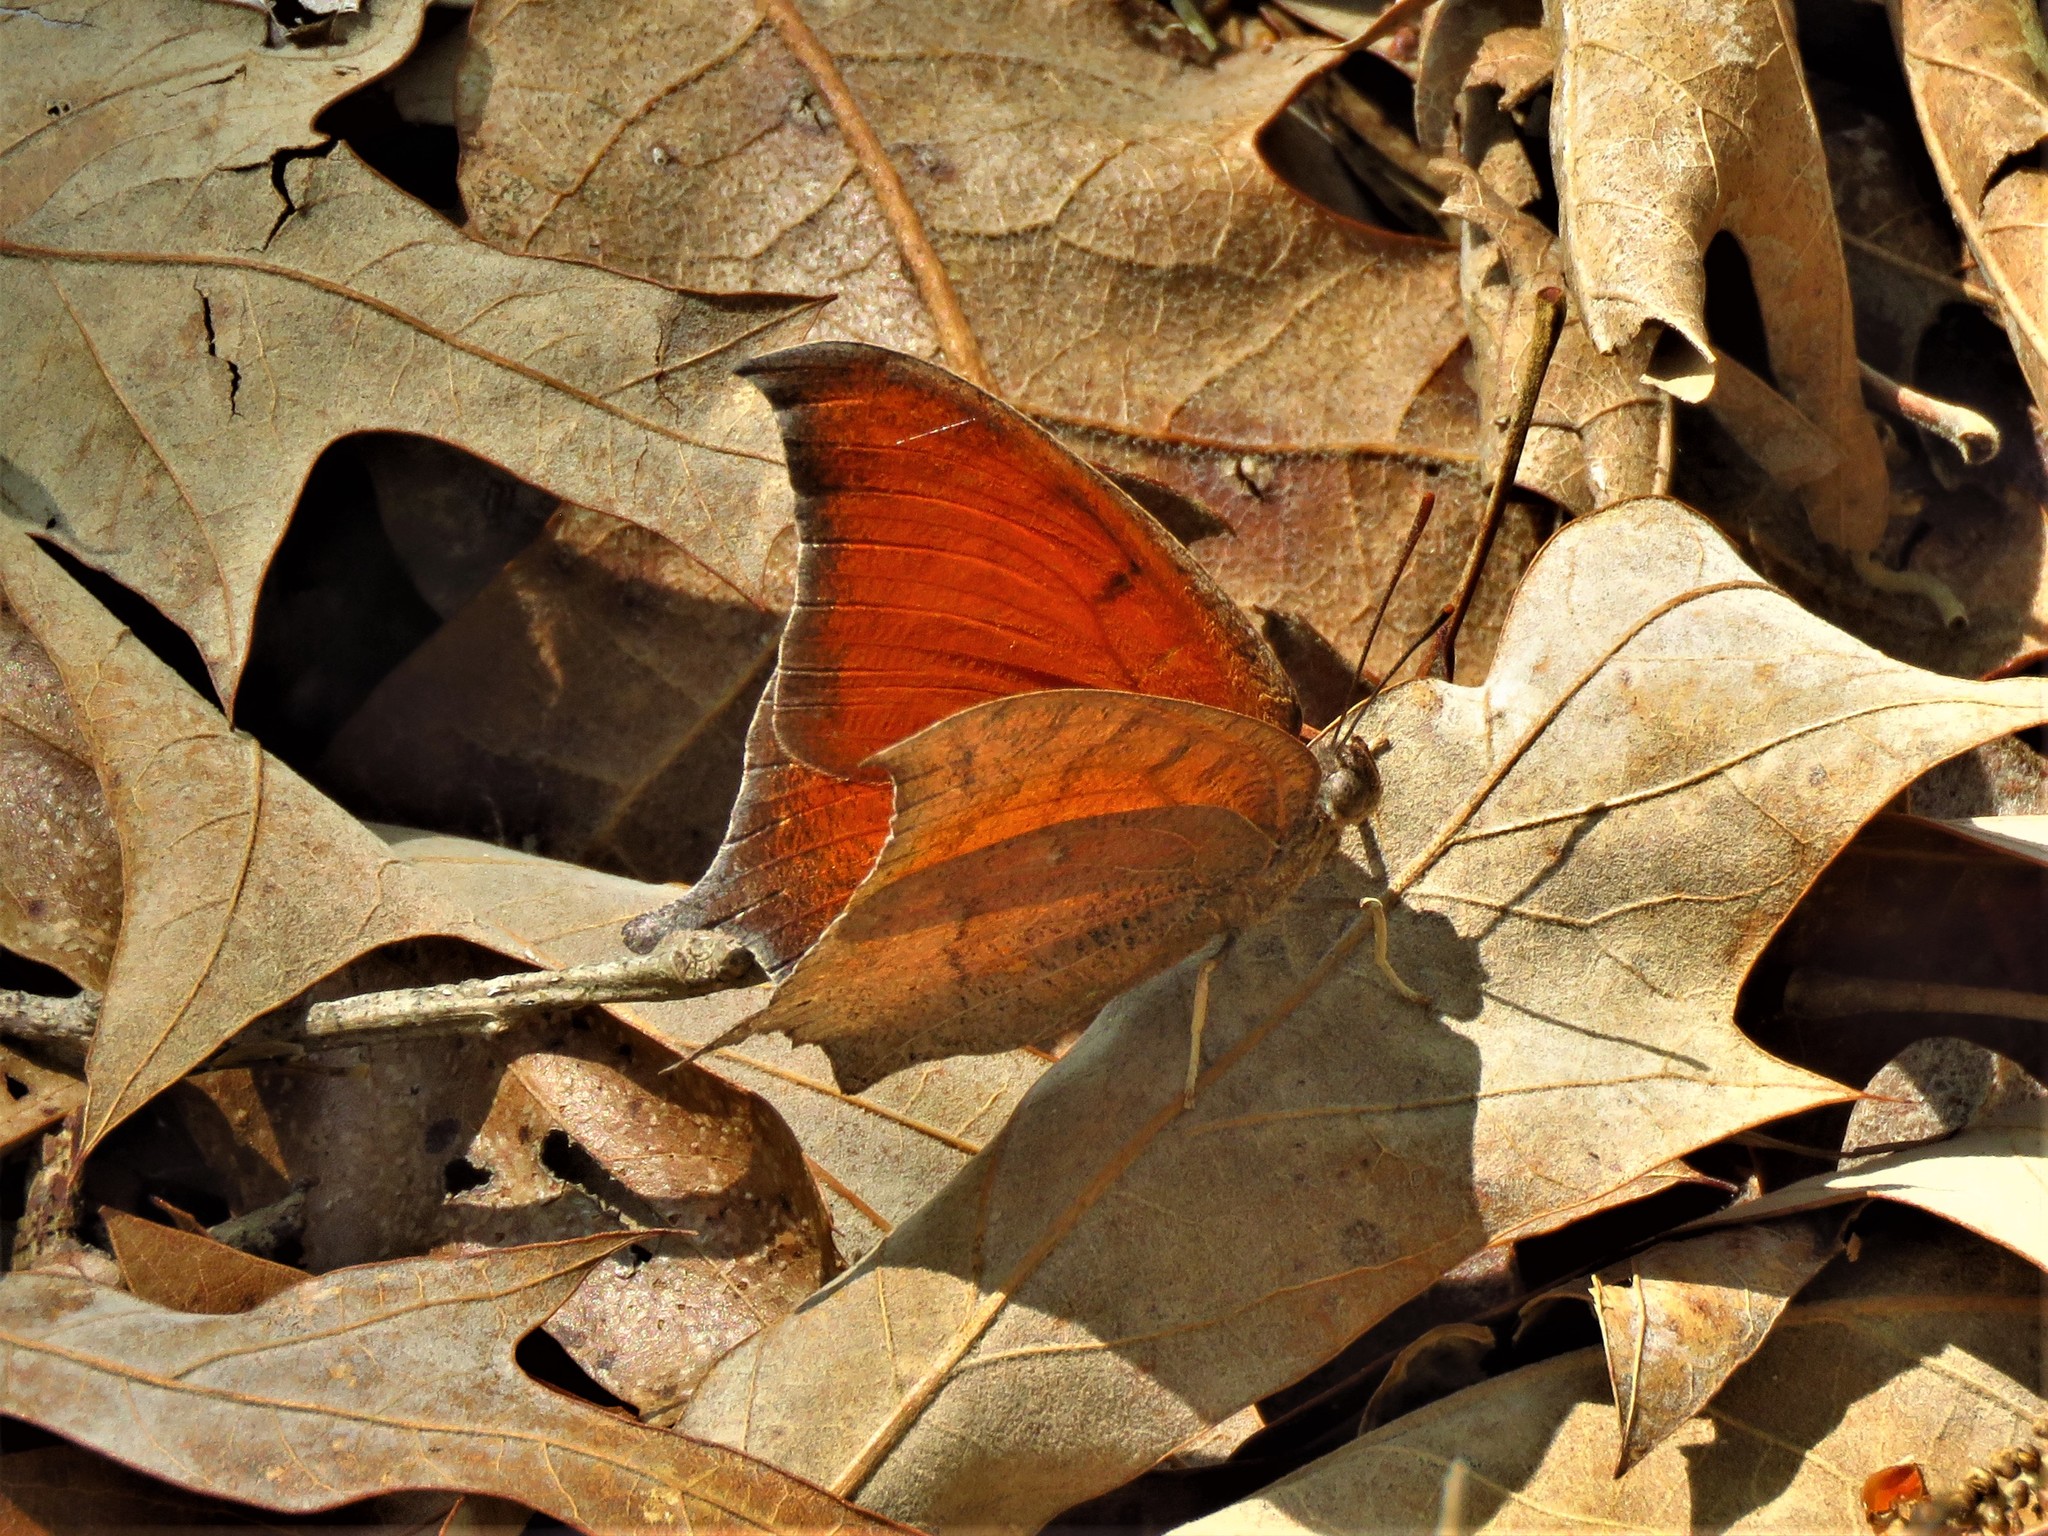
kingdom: Animalia
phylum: Arthropoda
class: Insecta
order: Lepidoptera
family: Nymphalidae
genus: Anaea
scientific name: Anaea andria
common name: Goatweed leafwing
